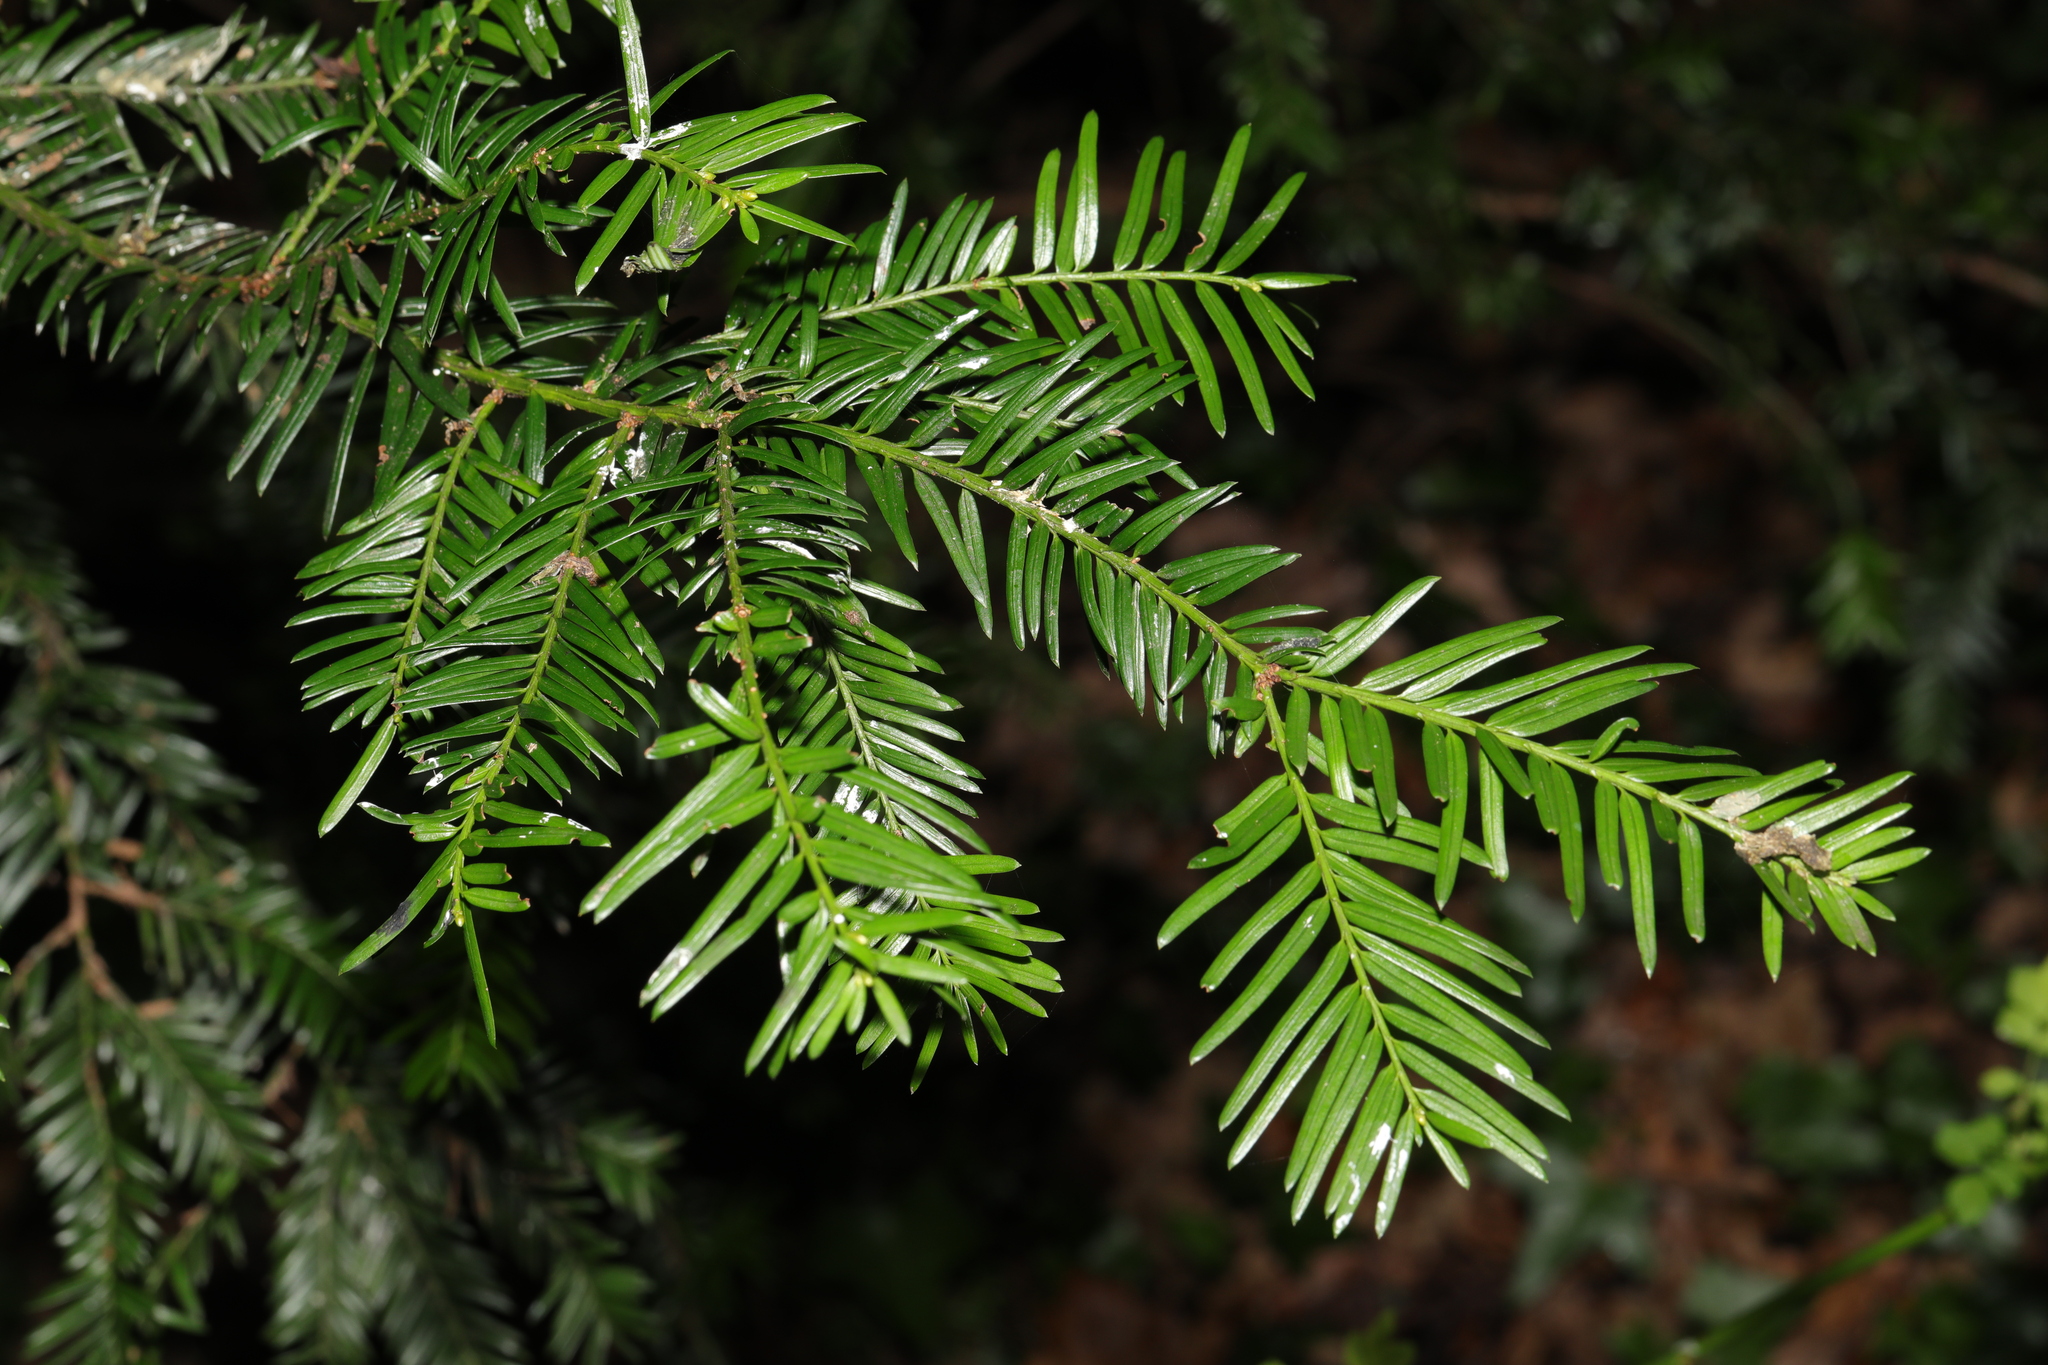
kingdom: Plantae
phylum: Tracheophyta
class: Pinopsida
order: Pinales
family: Taxaceae
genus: Taxus
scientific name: Taxus baccata
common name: Yew
